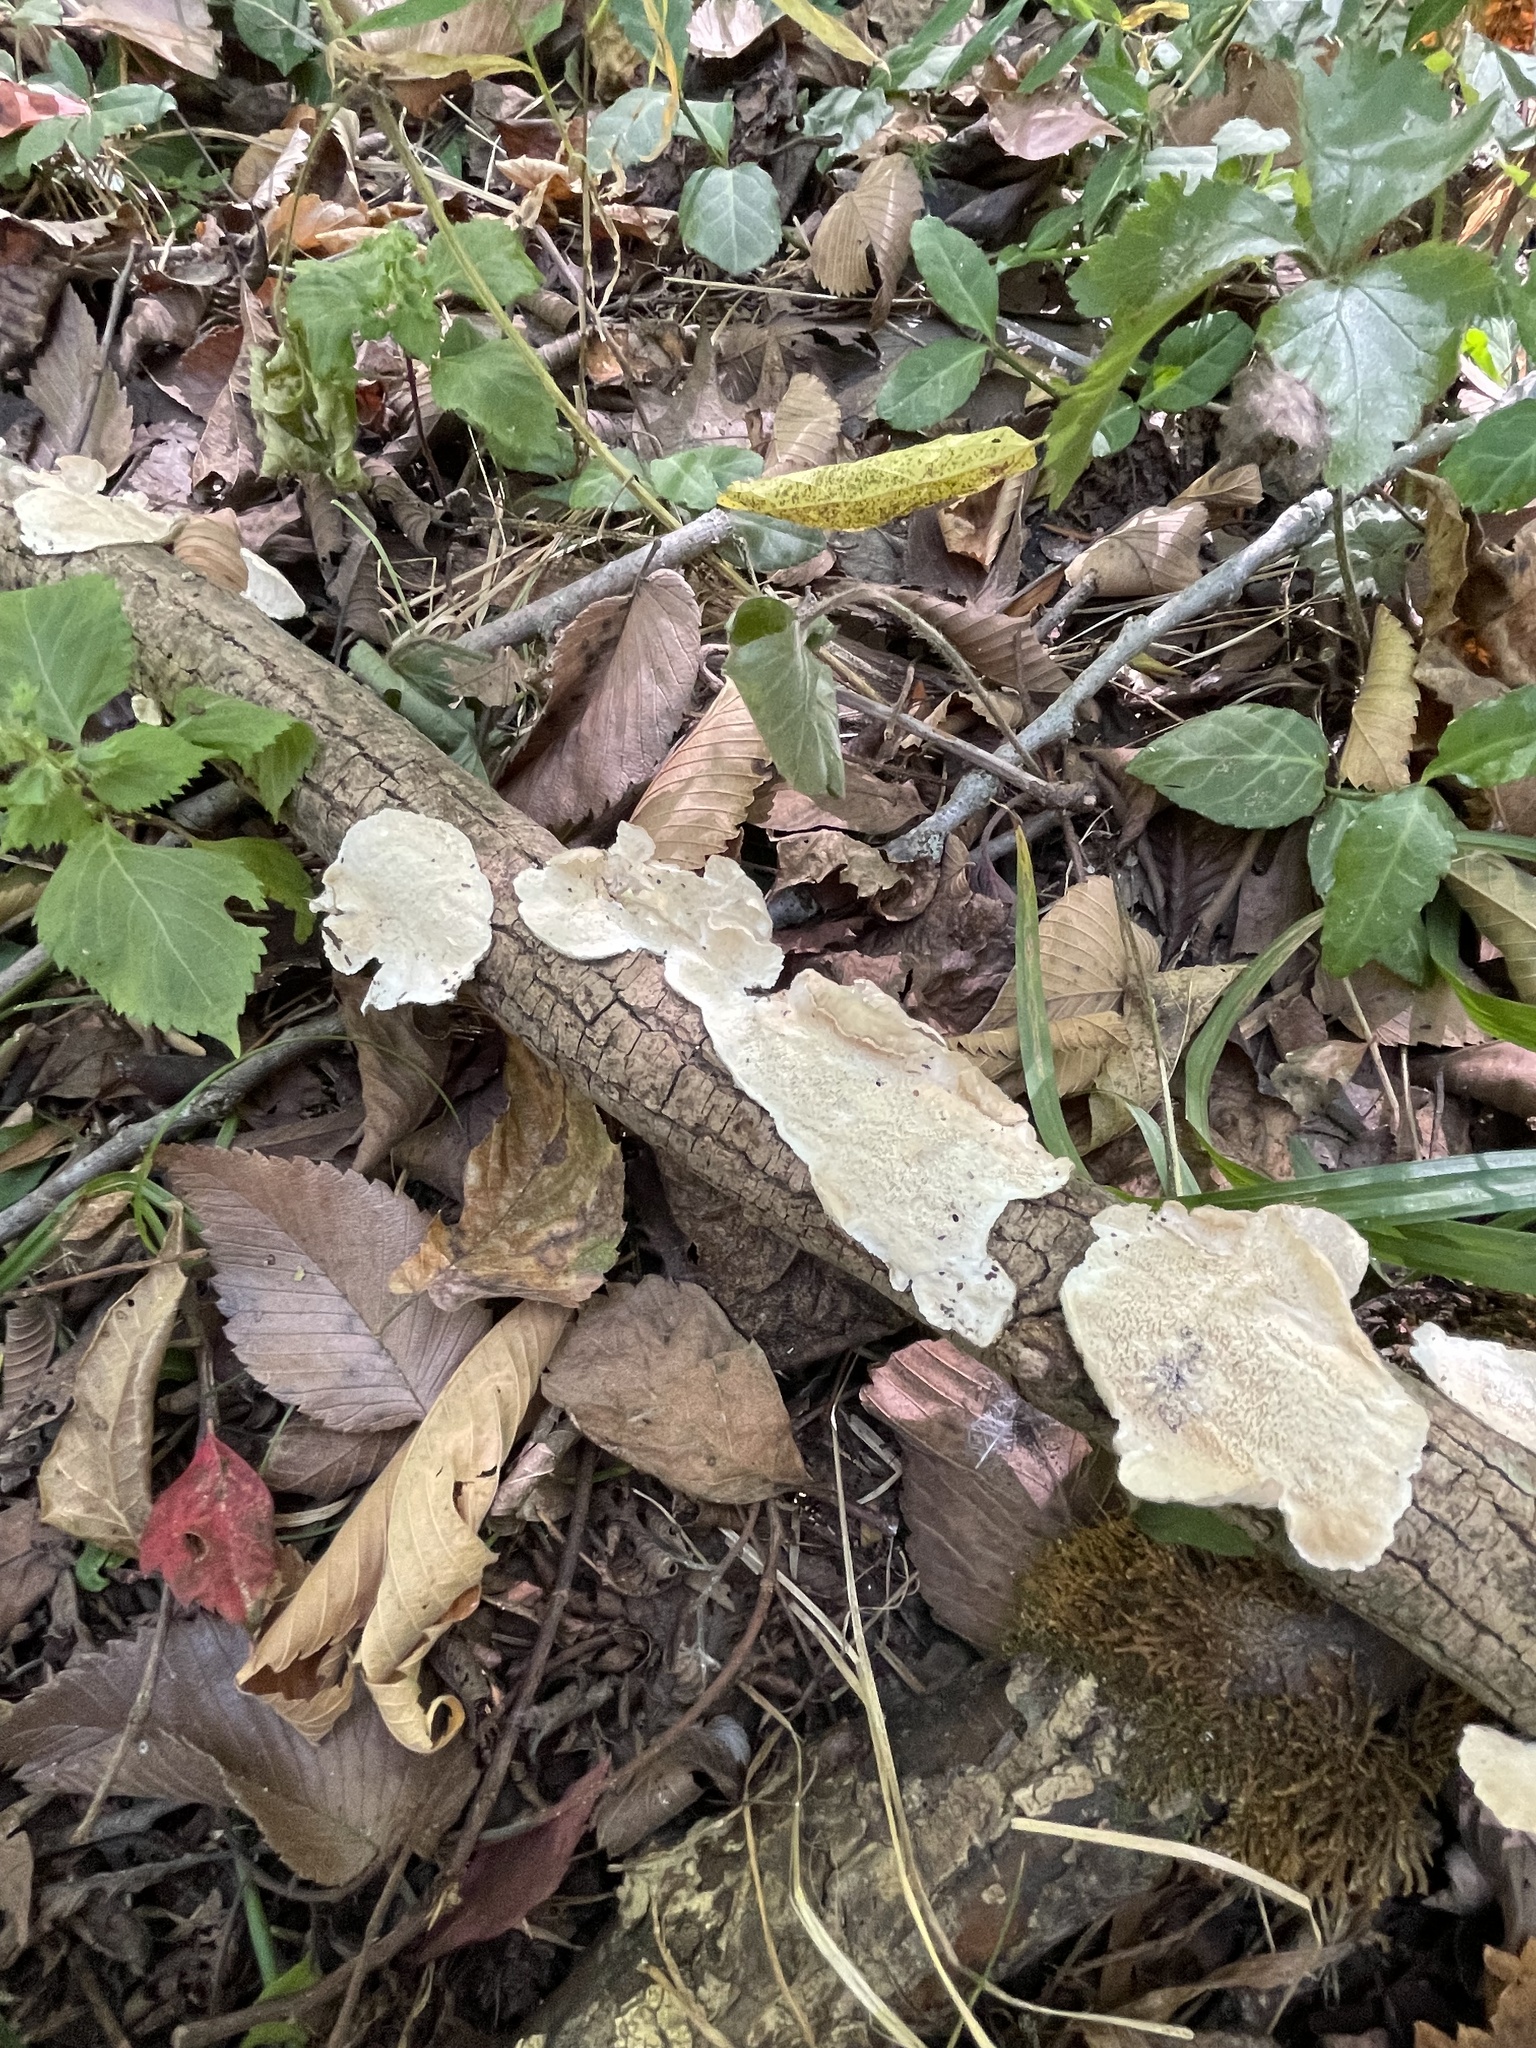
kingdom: Fungi
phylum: Basidiomycota
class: Agaricomycetes
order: Polyporales
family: Irpicaceae
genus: Irpex
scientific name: Irpex lacteus
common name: Milk-white toothed polypore
